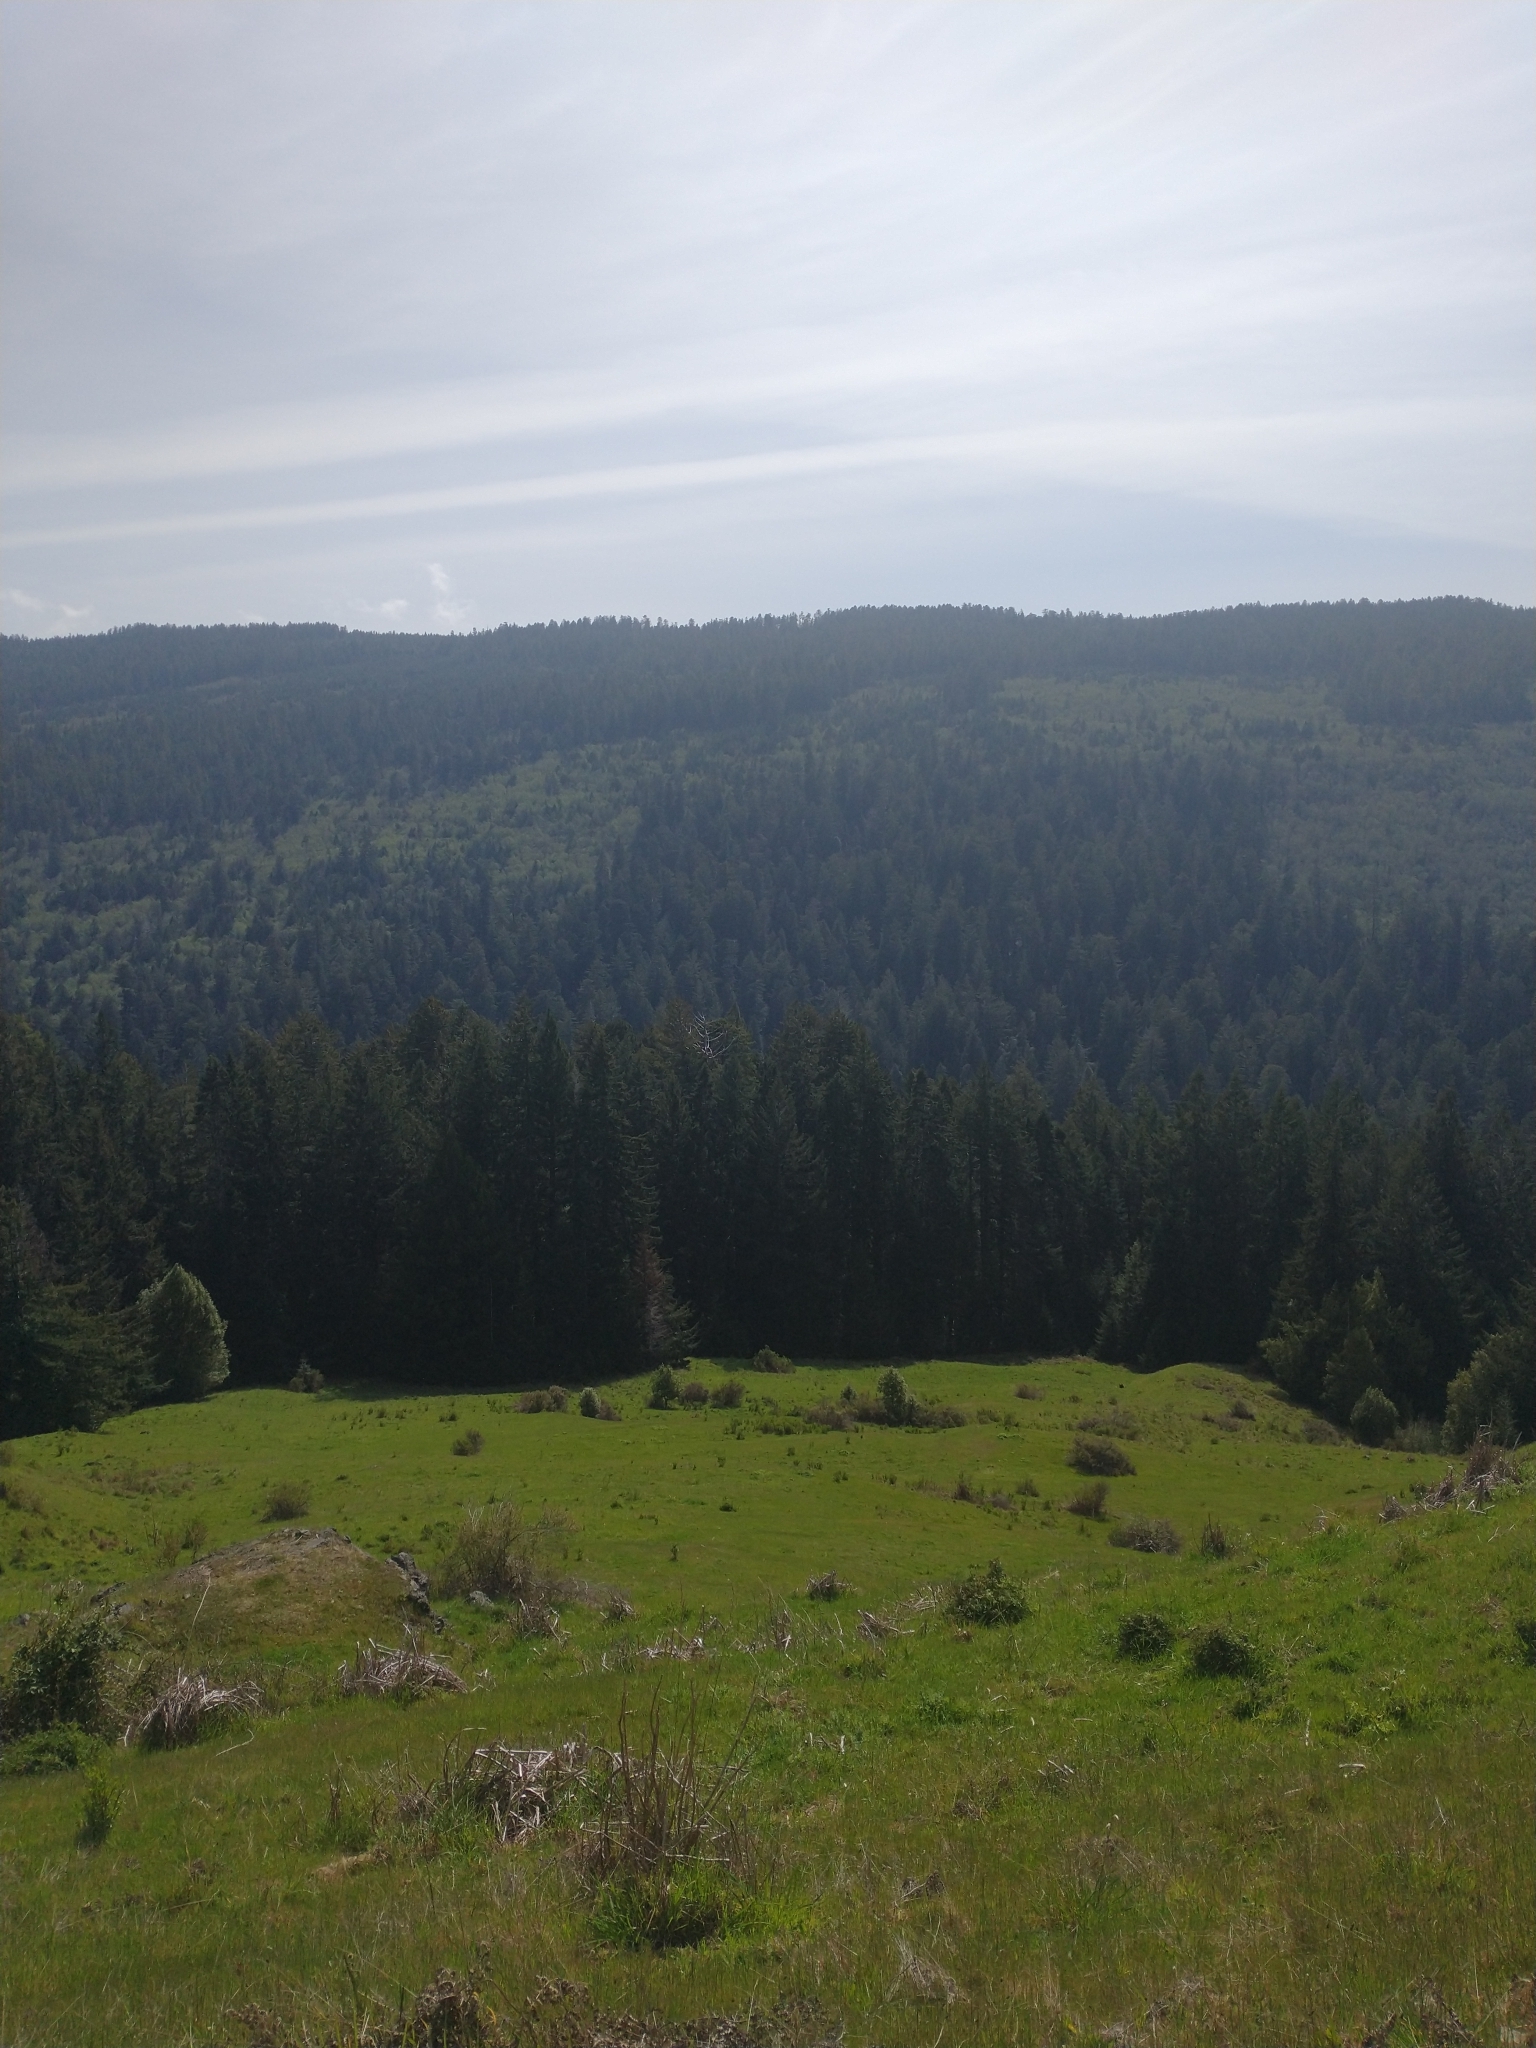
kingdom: Animalia
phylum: Chordata
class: Mammalia
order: Carnivora
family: Ursidae
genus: Ursus
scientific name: Ursus americanus
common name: American black bear
